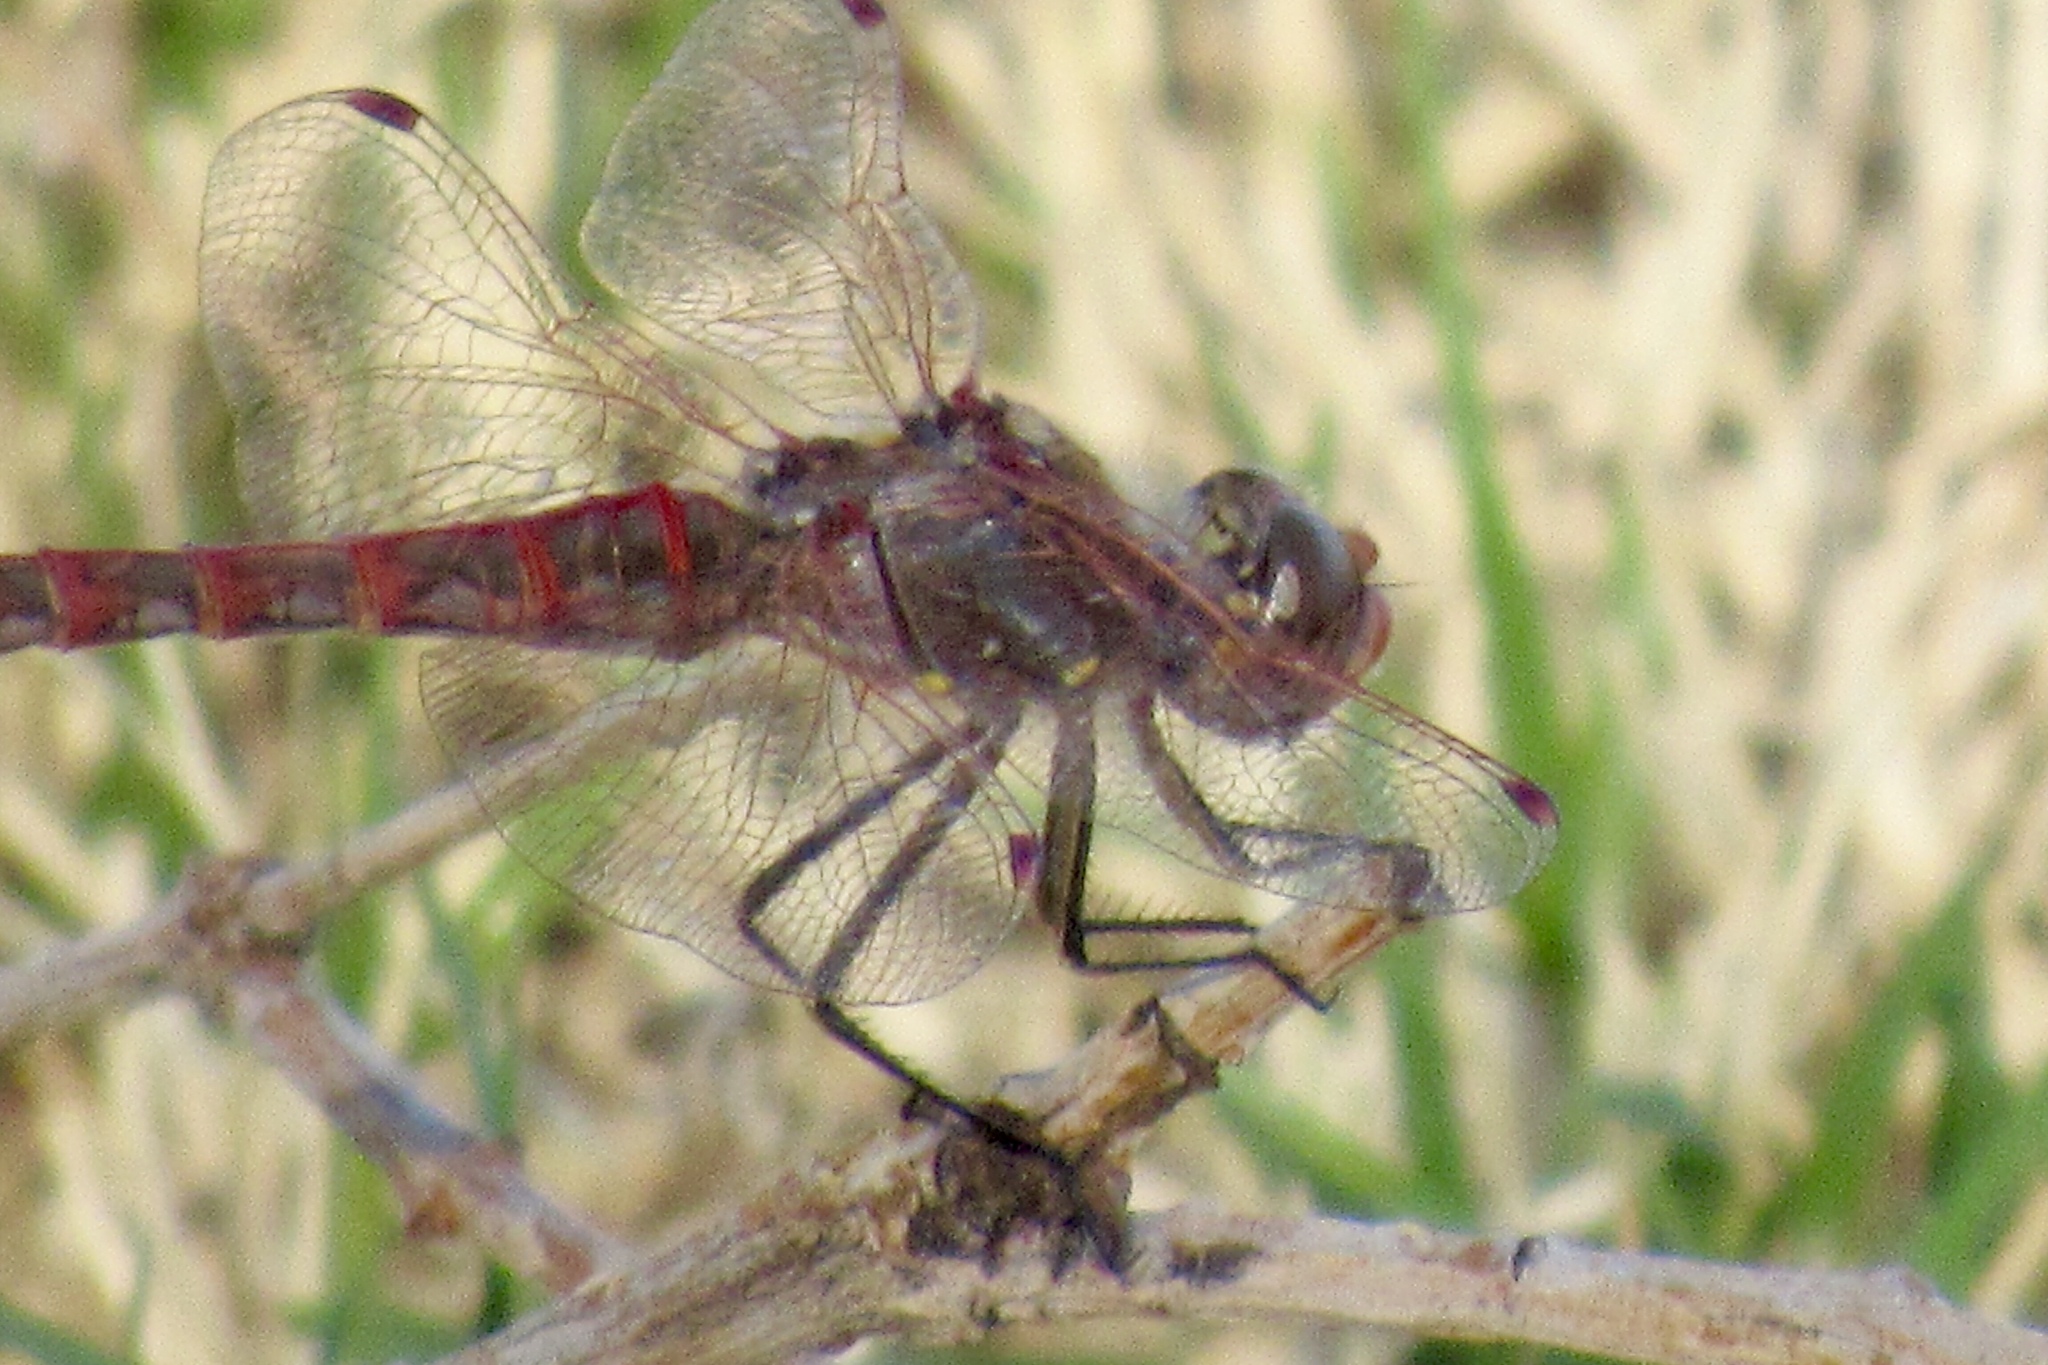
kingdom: Animalia
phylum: Arthropoda
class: Insecta
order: Odonata
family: Libellulidae
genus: Sympetrum
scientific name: Sympetrum corruptum
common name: Variegated meadowhawk
